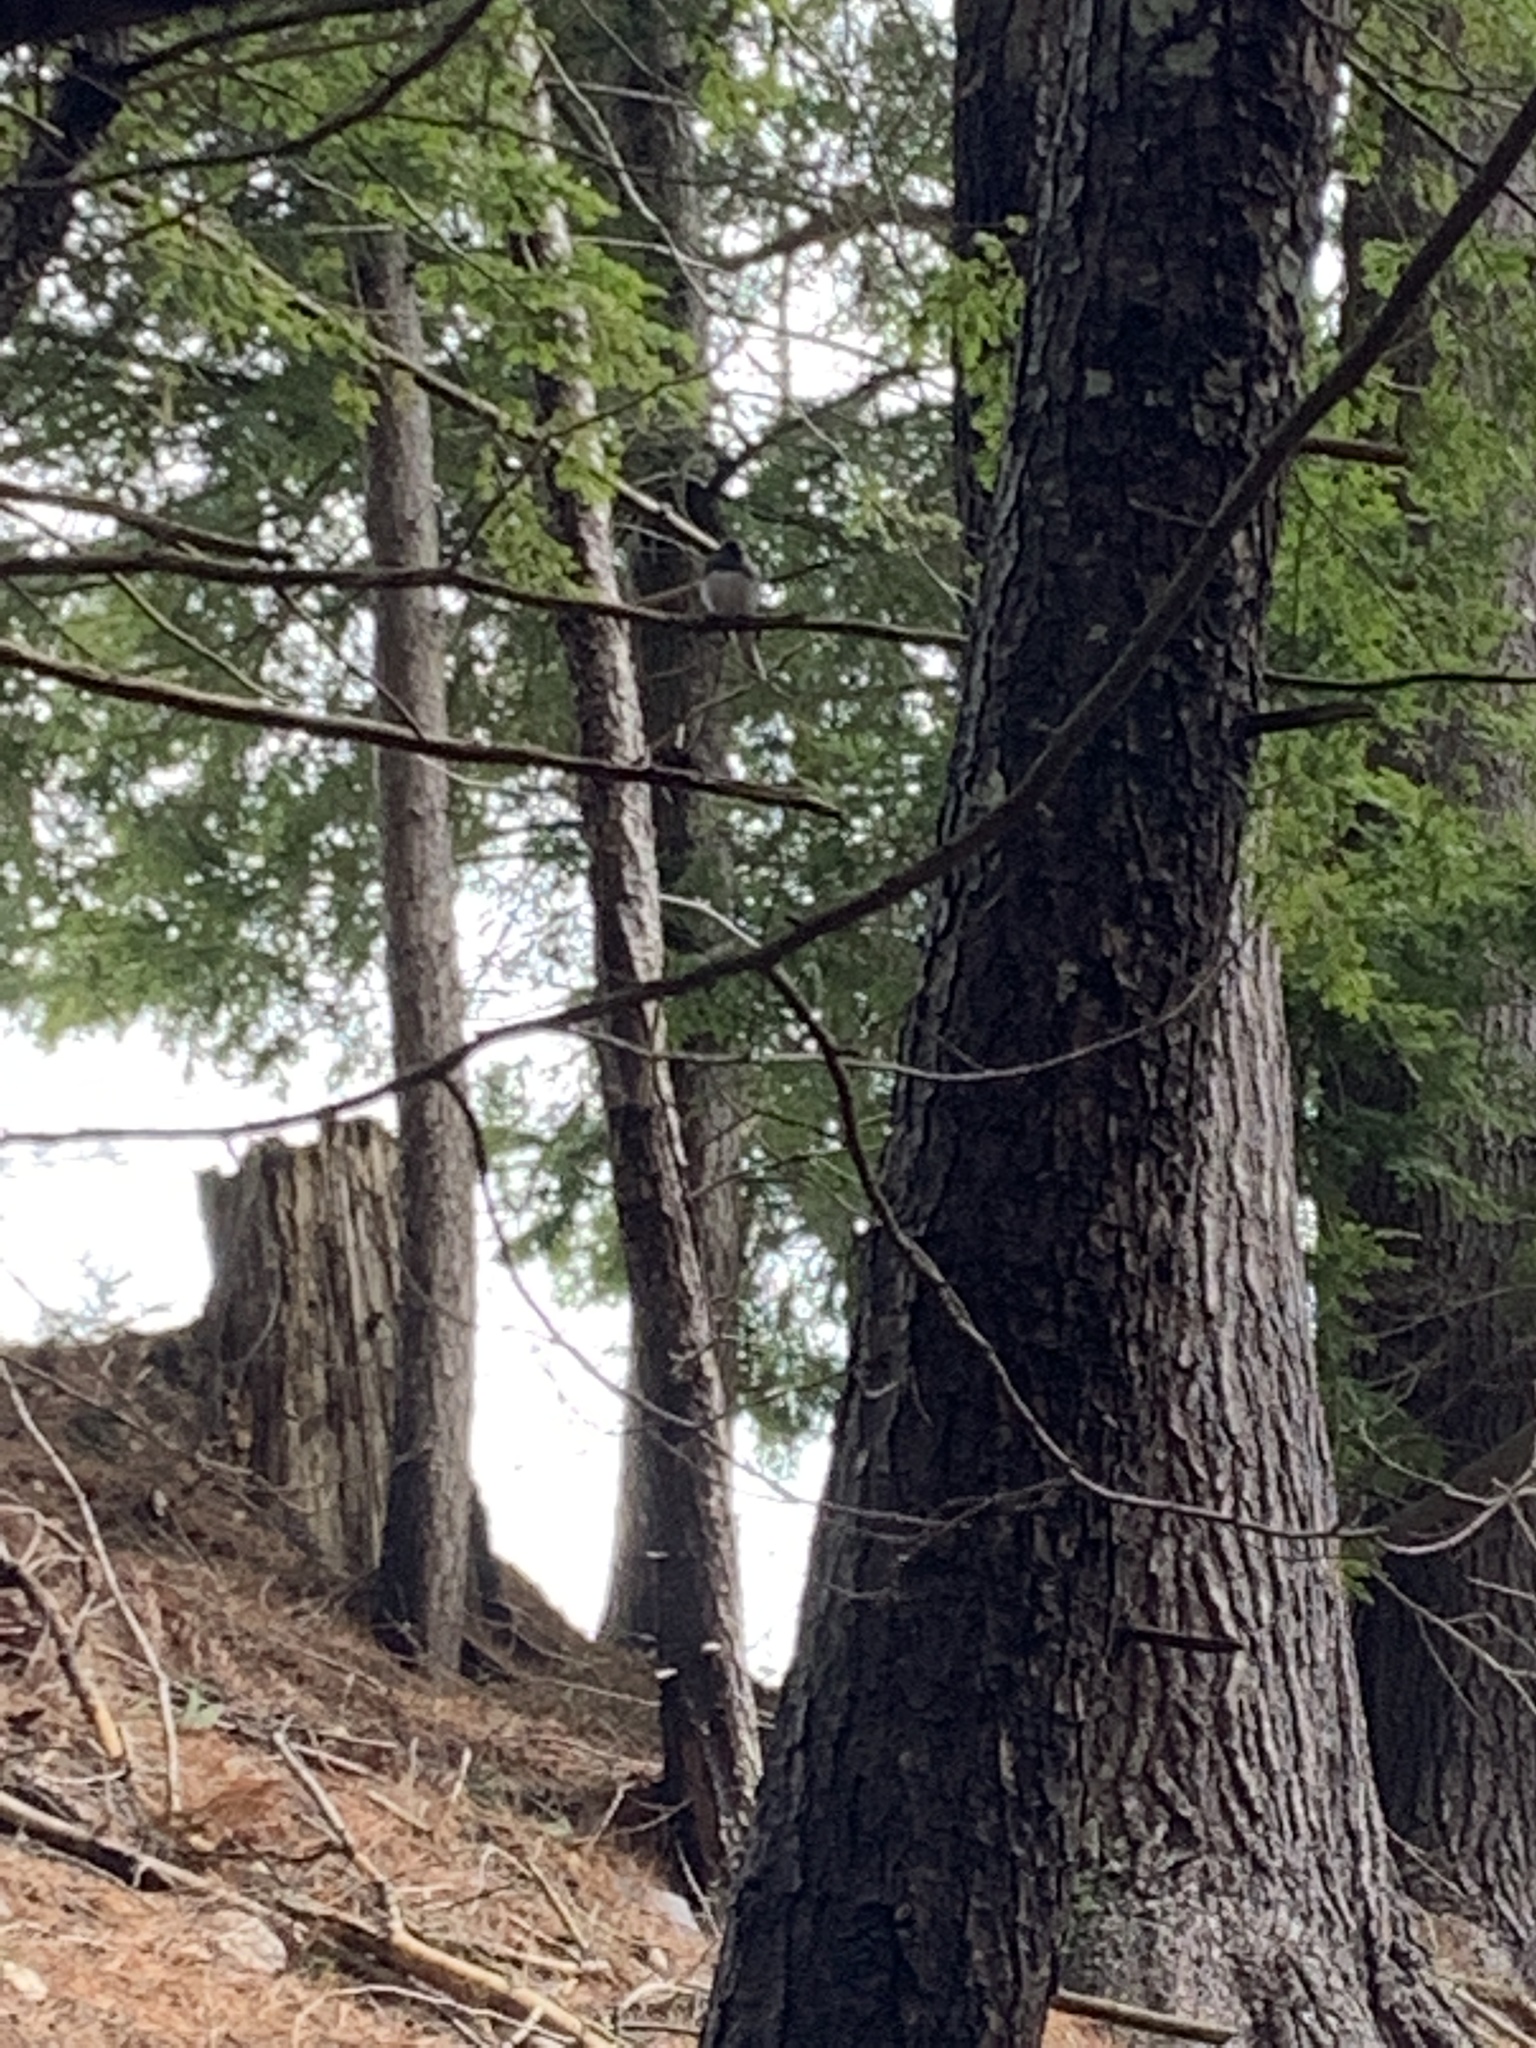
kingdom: Animalia
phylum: Chordata
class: Aves
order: Passeriformes
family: Passerellidae
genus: Junco
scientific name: Junco hyemalis
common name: Dark-eyed junco
